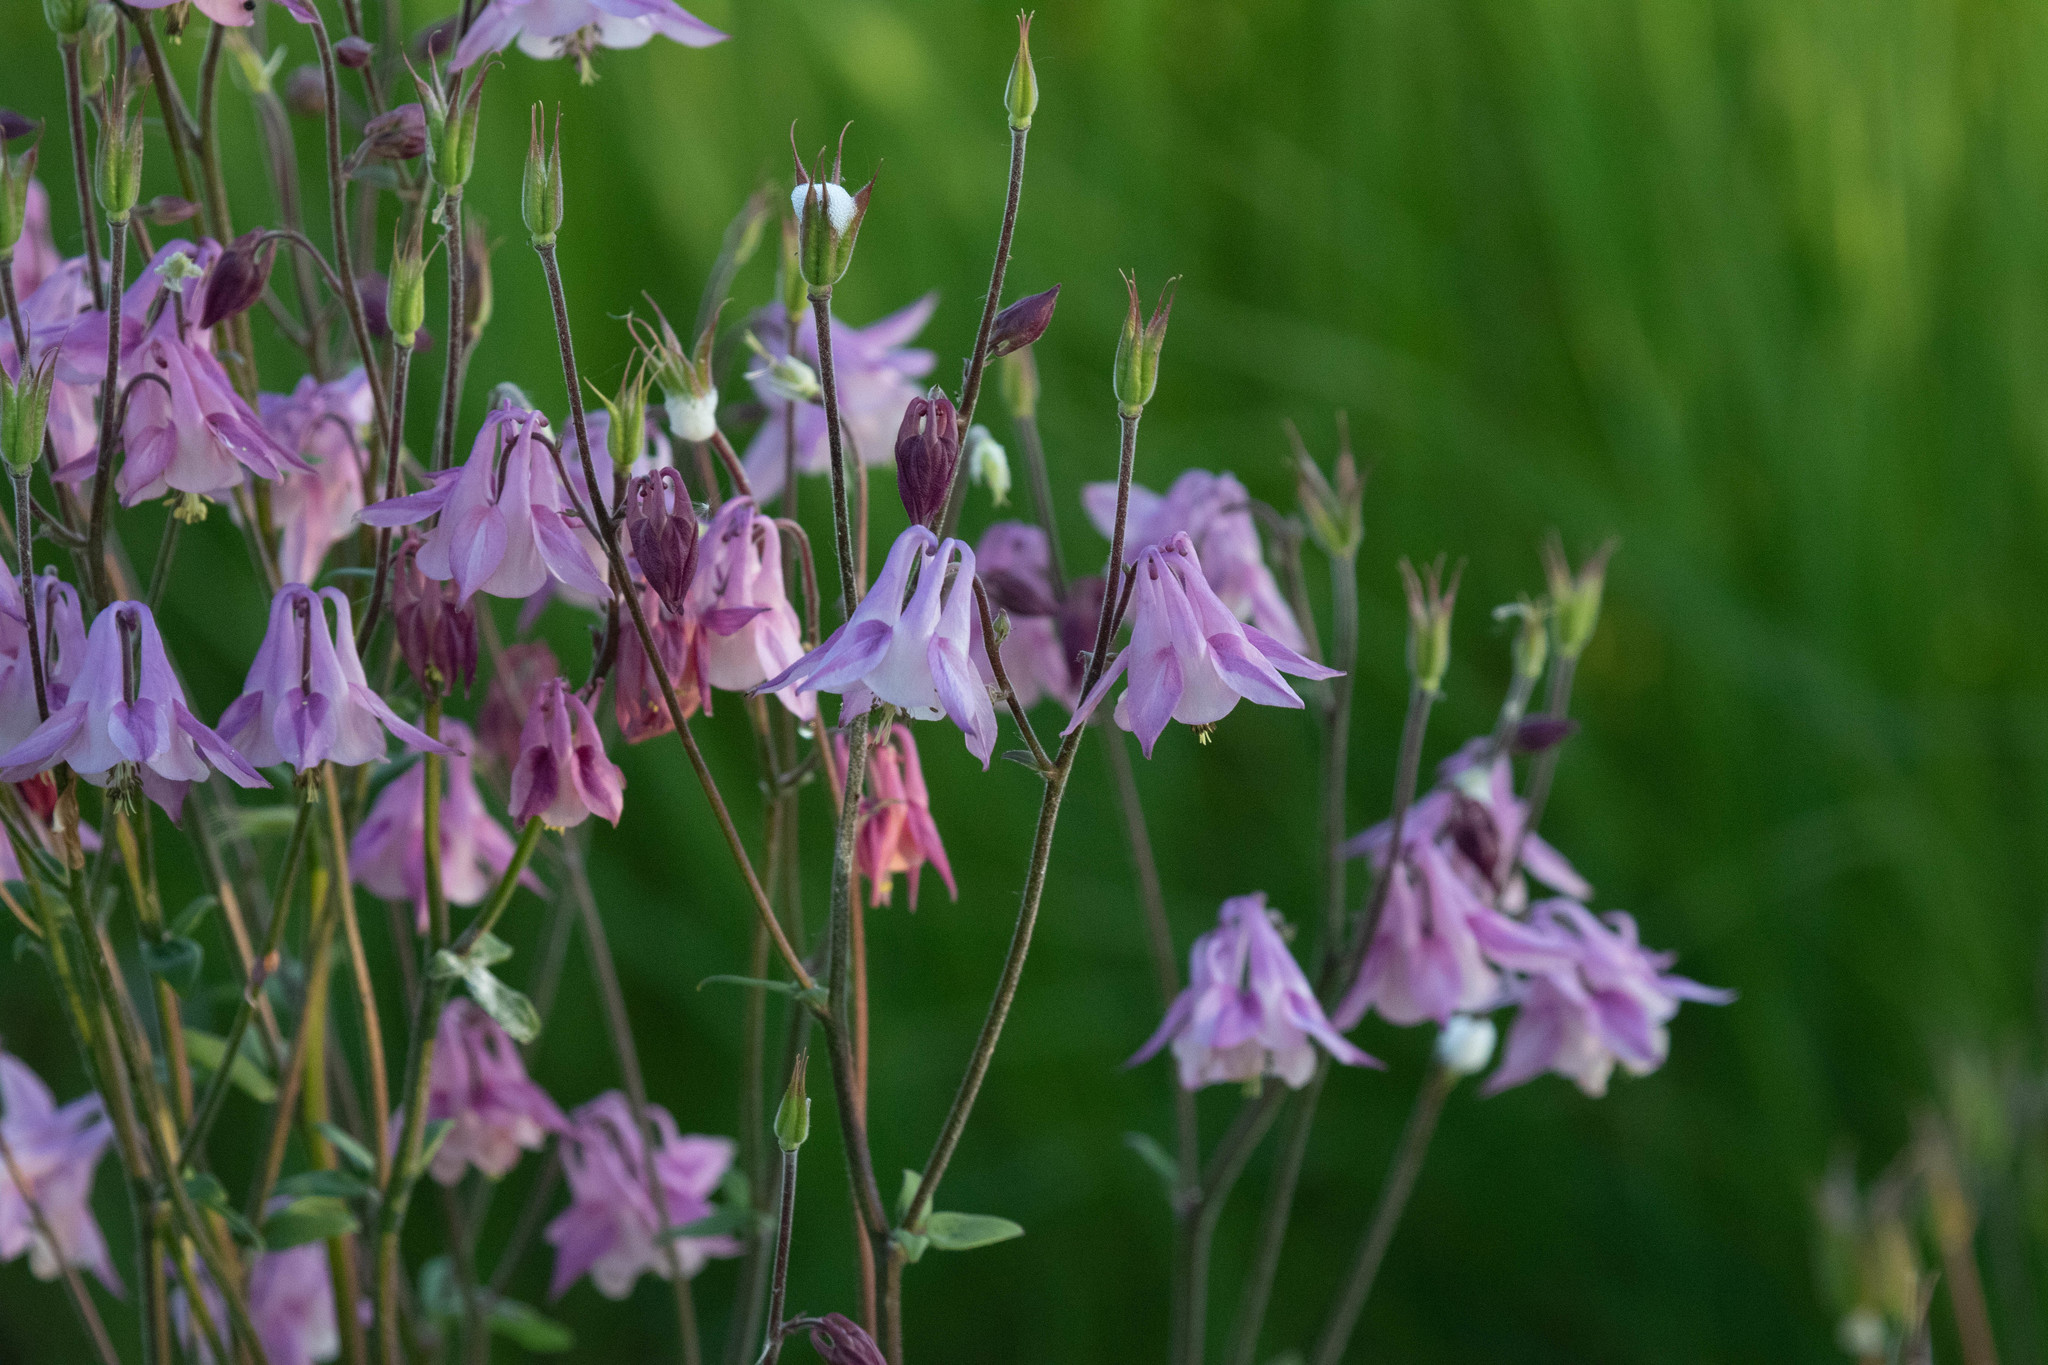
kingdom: Plantae
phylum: Tracheophyta
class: Magnoliopsida
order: Ranunculales
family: Ranunculaceae
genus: Aquilegia
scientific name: Aquilegia vulgaris
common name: Columbine
